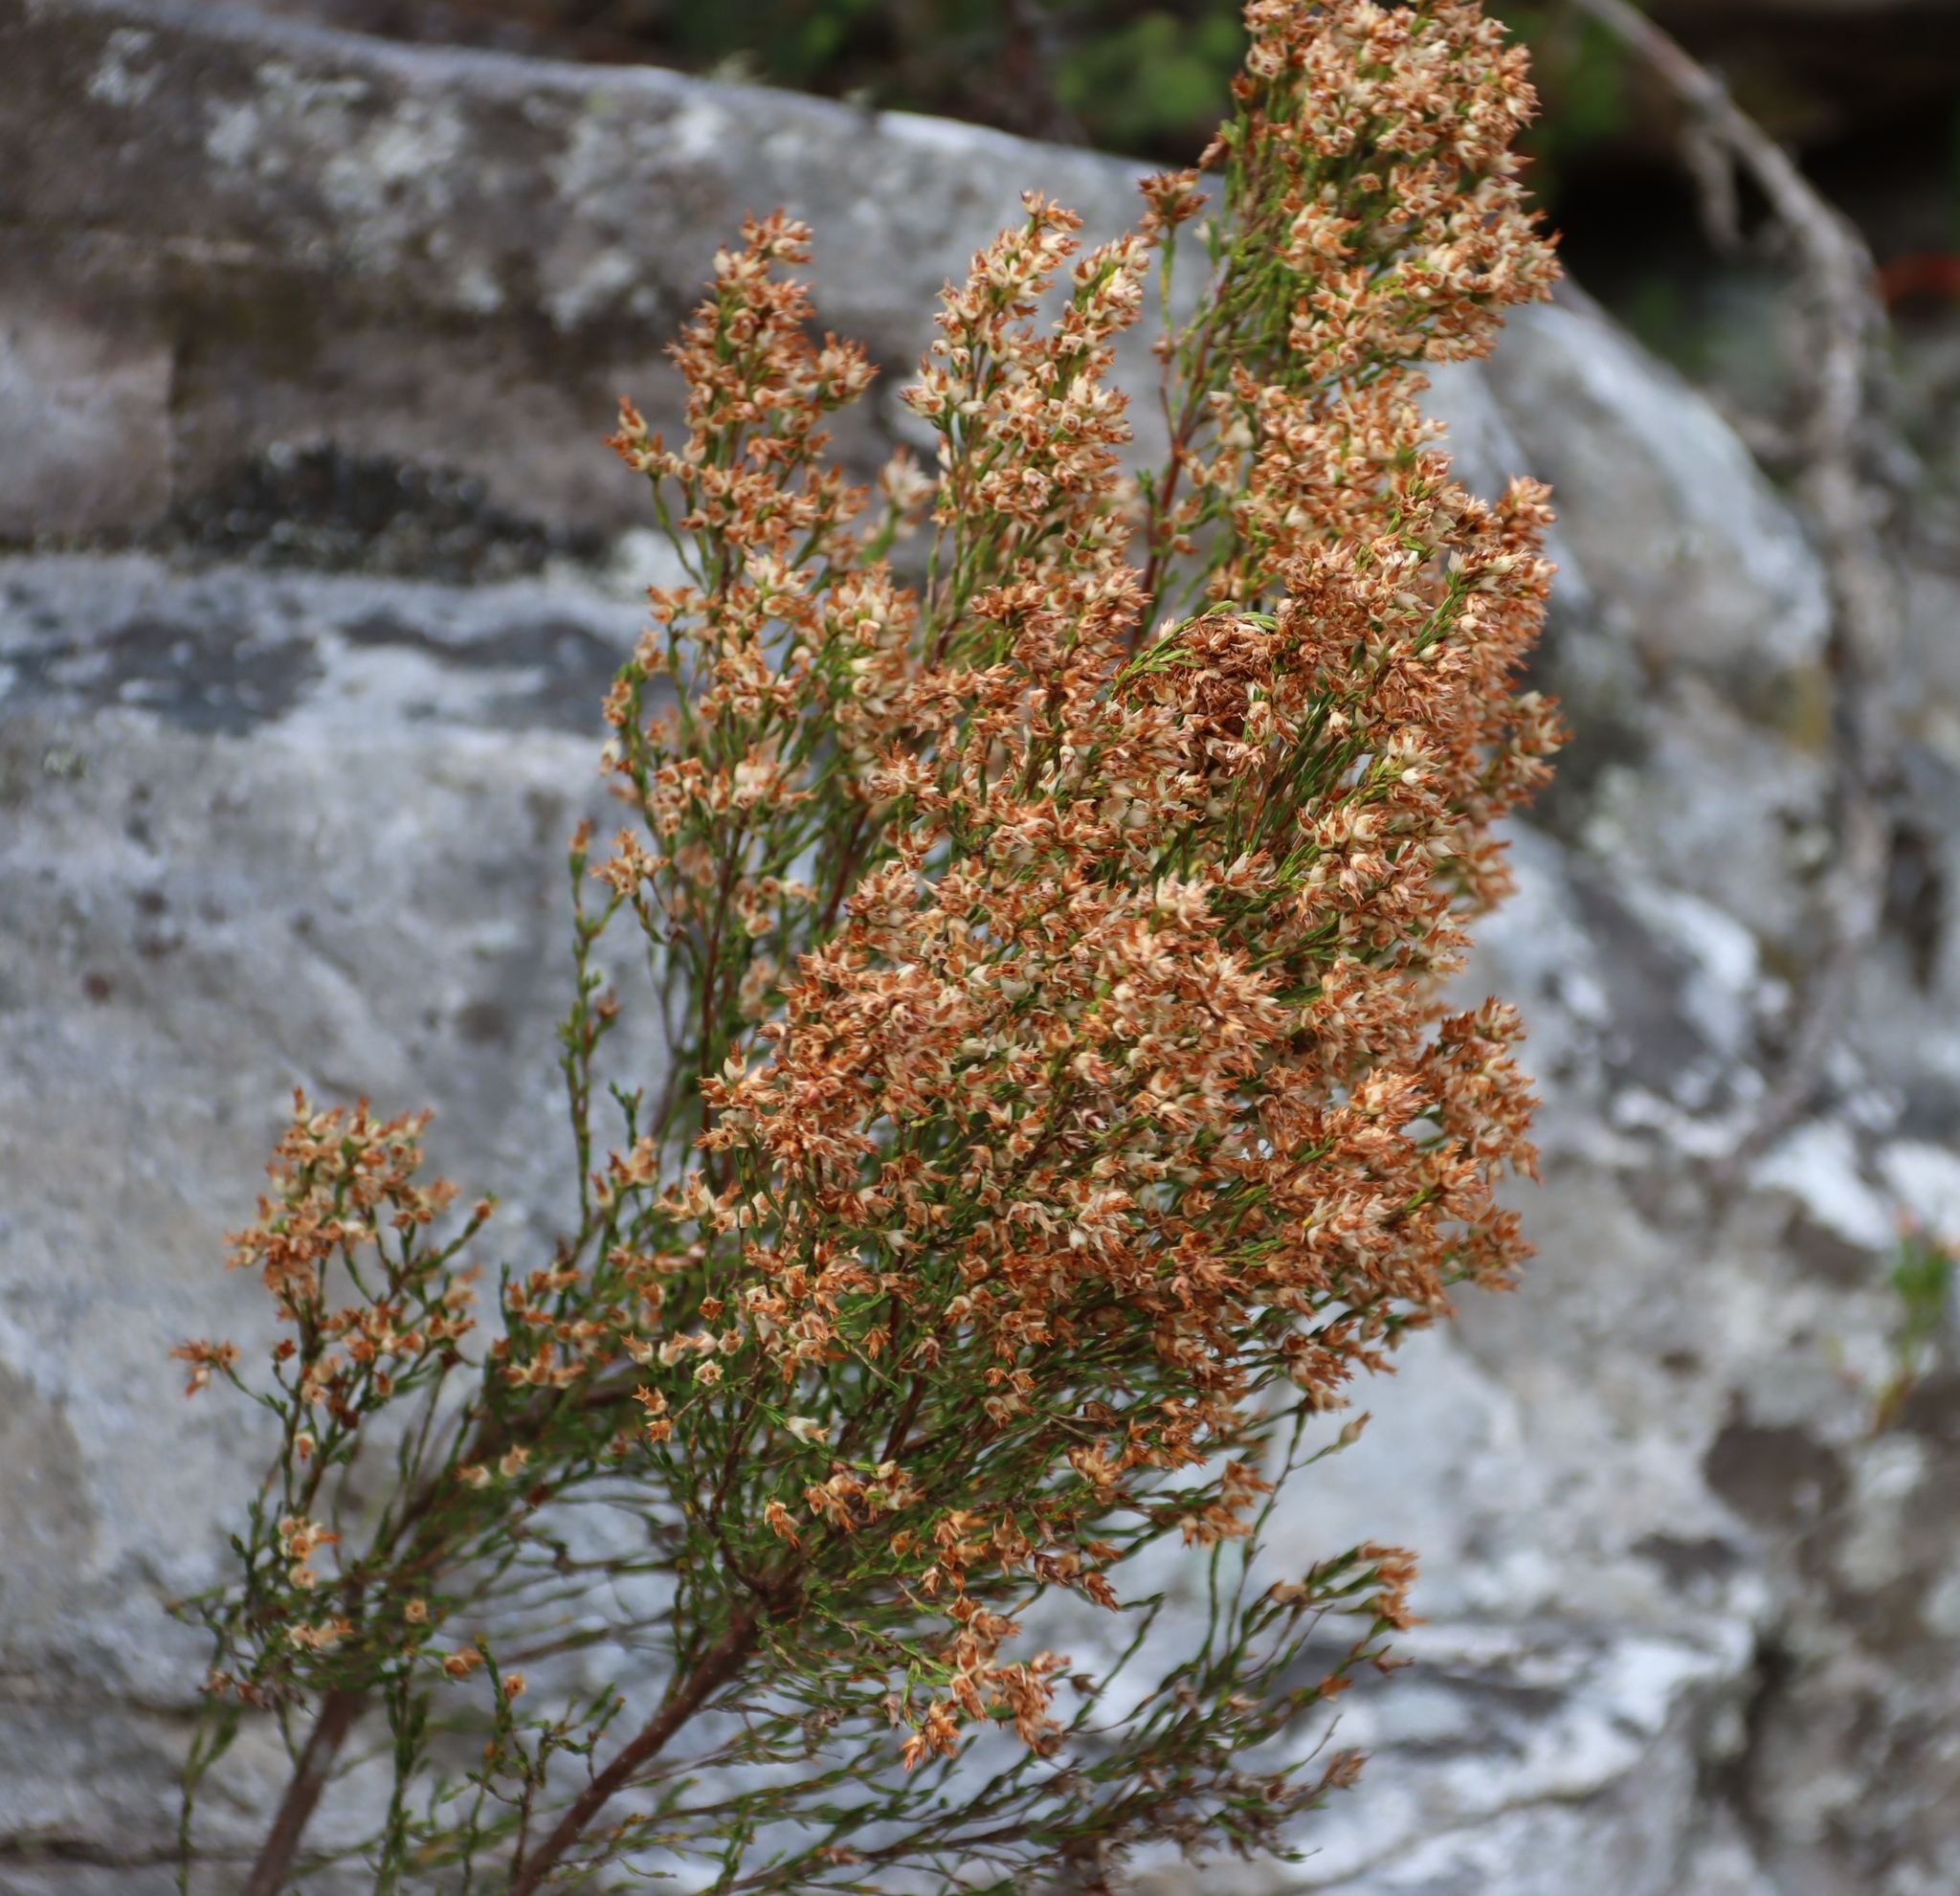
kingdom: Plantae
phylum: Tracheophyta
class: Magnoliopsida
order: Ericales
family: Ericaceae
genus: Erica
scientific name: Erica lutea
